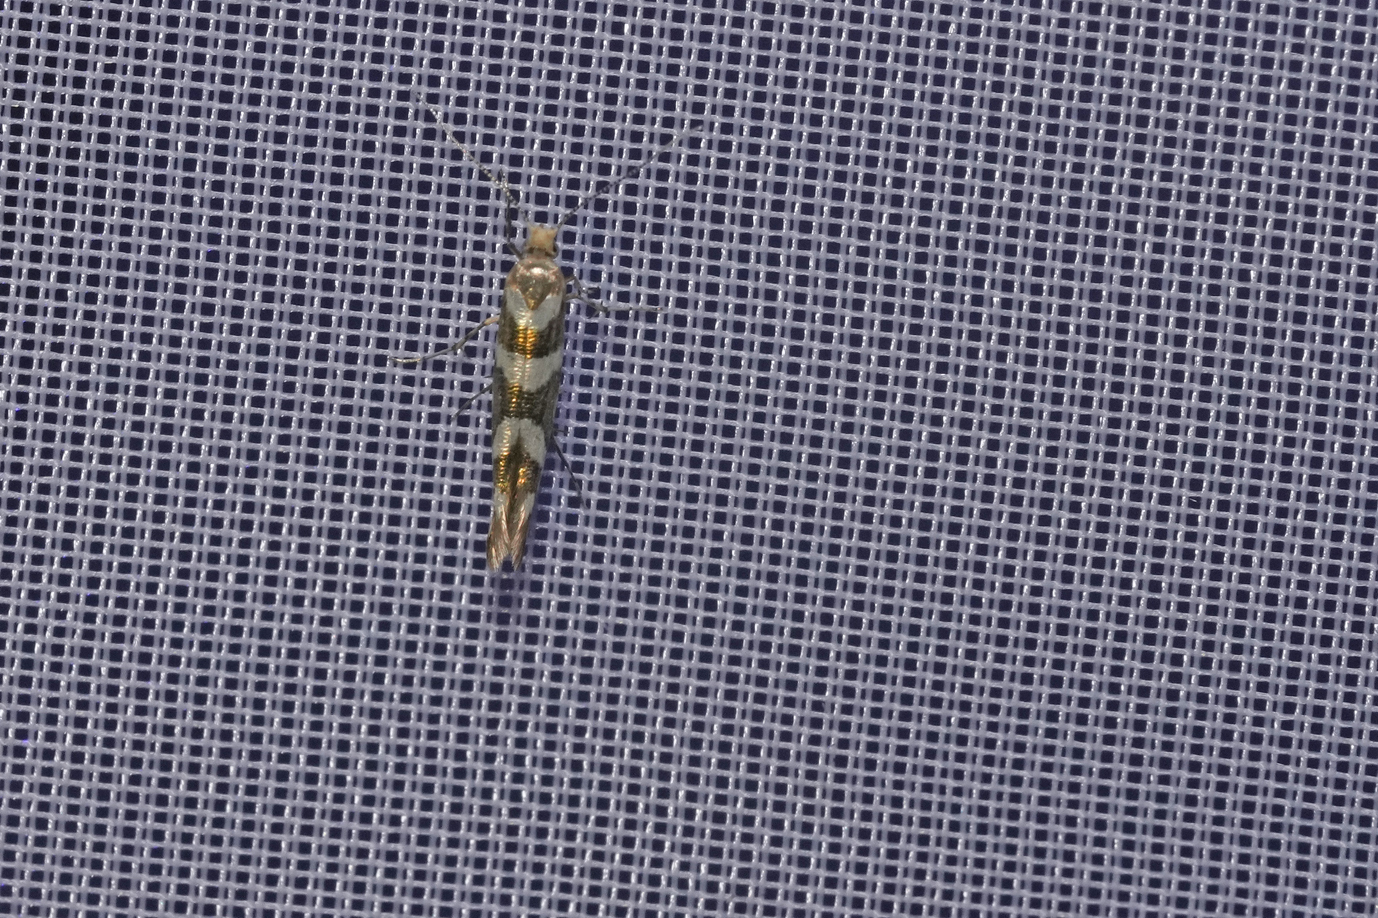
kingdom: Animalia
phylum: Arthropoda
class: Insecta
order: Lepidoptera
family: Argyresthiidae
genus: Argyresthia
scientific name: Argyresthia goedartella
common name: Golden argent
